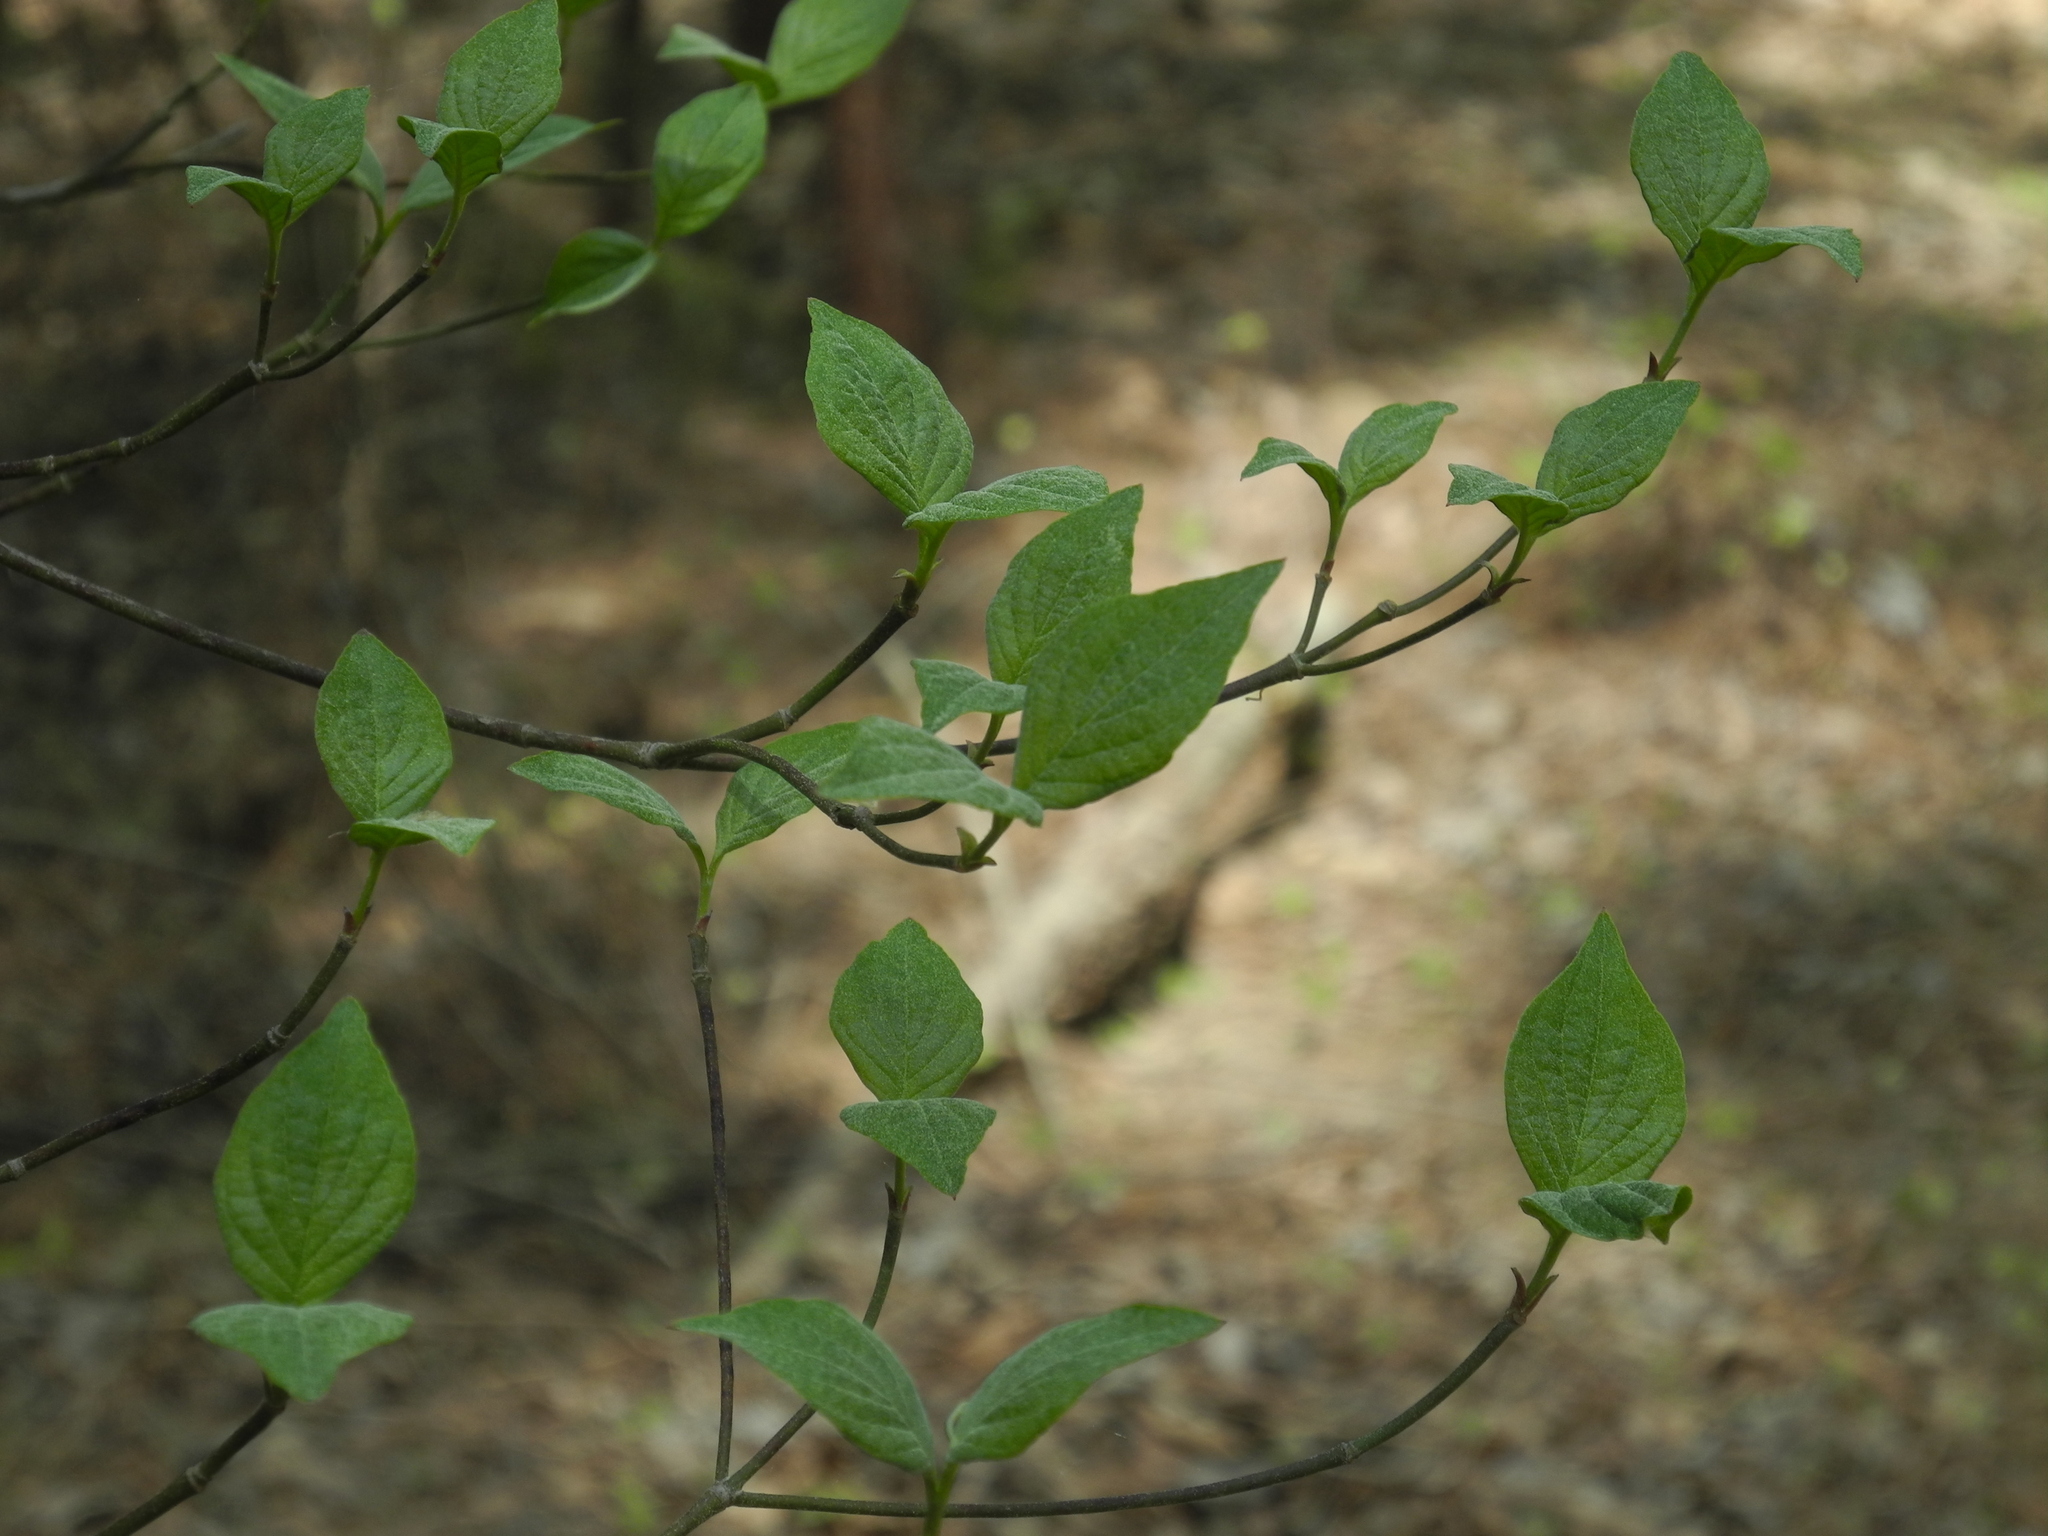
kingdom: Plantae
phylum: Tracheophyta
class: Magnoliopsida
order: Cornales
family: Cornaceae
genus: Cornus
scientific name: Cornus florida
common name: Flowering dogwood
